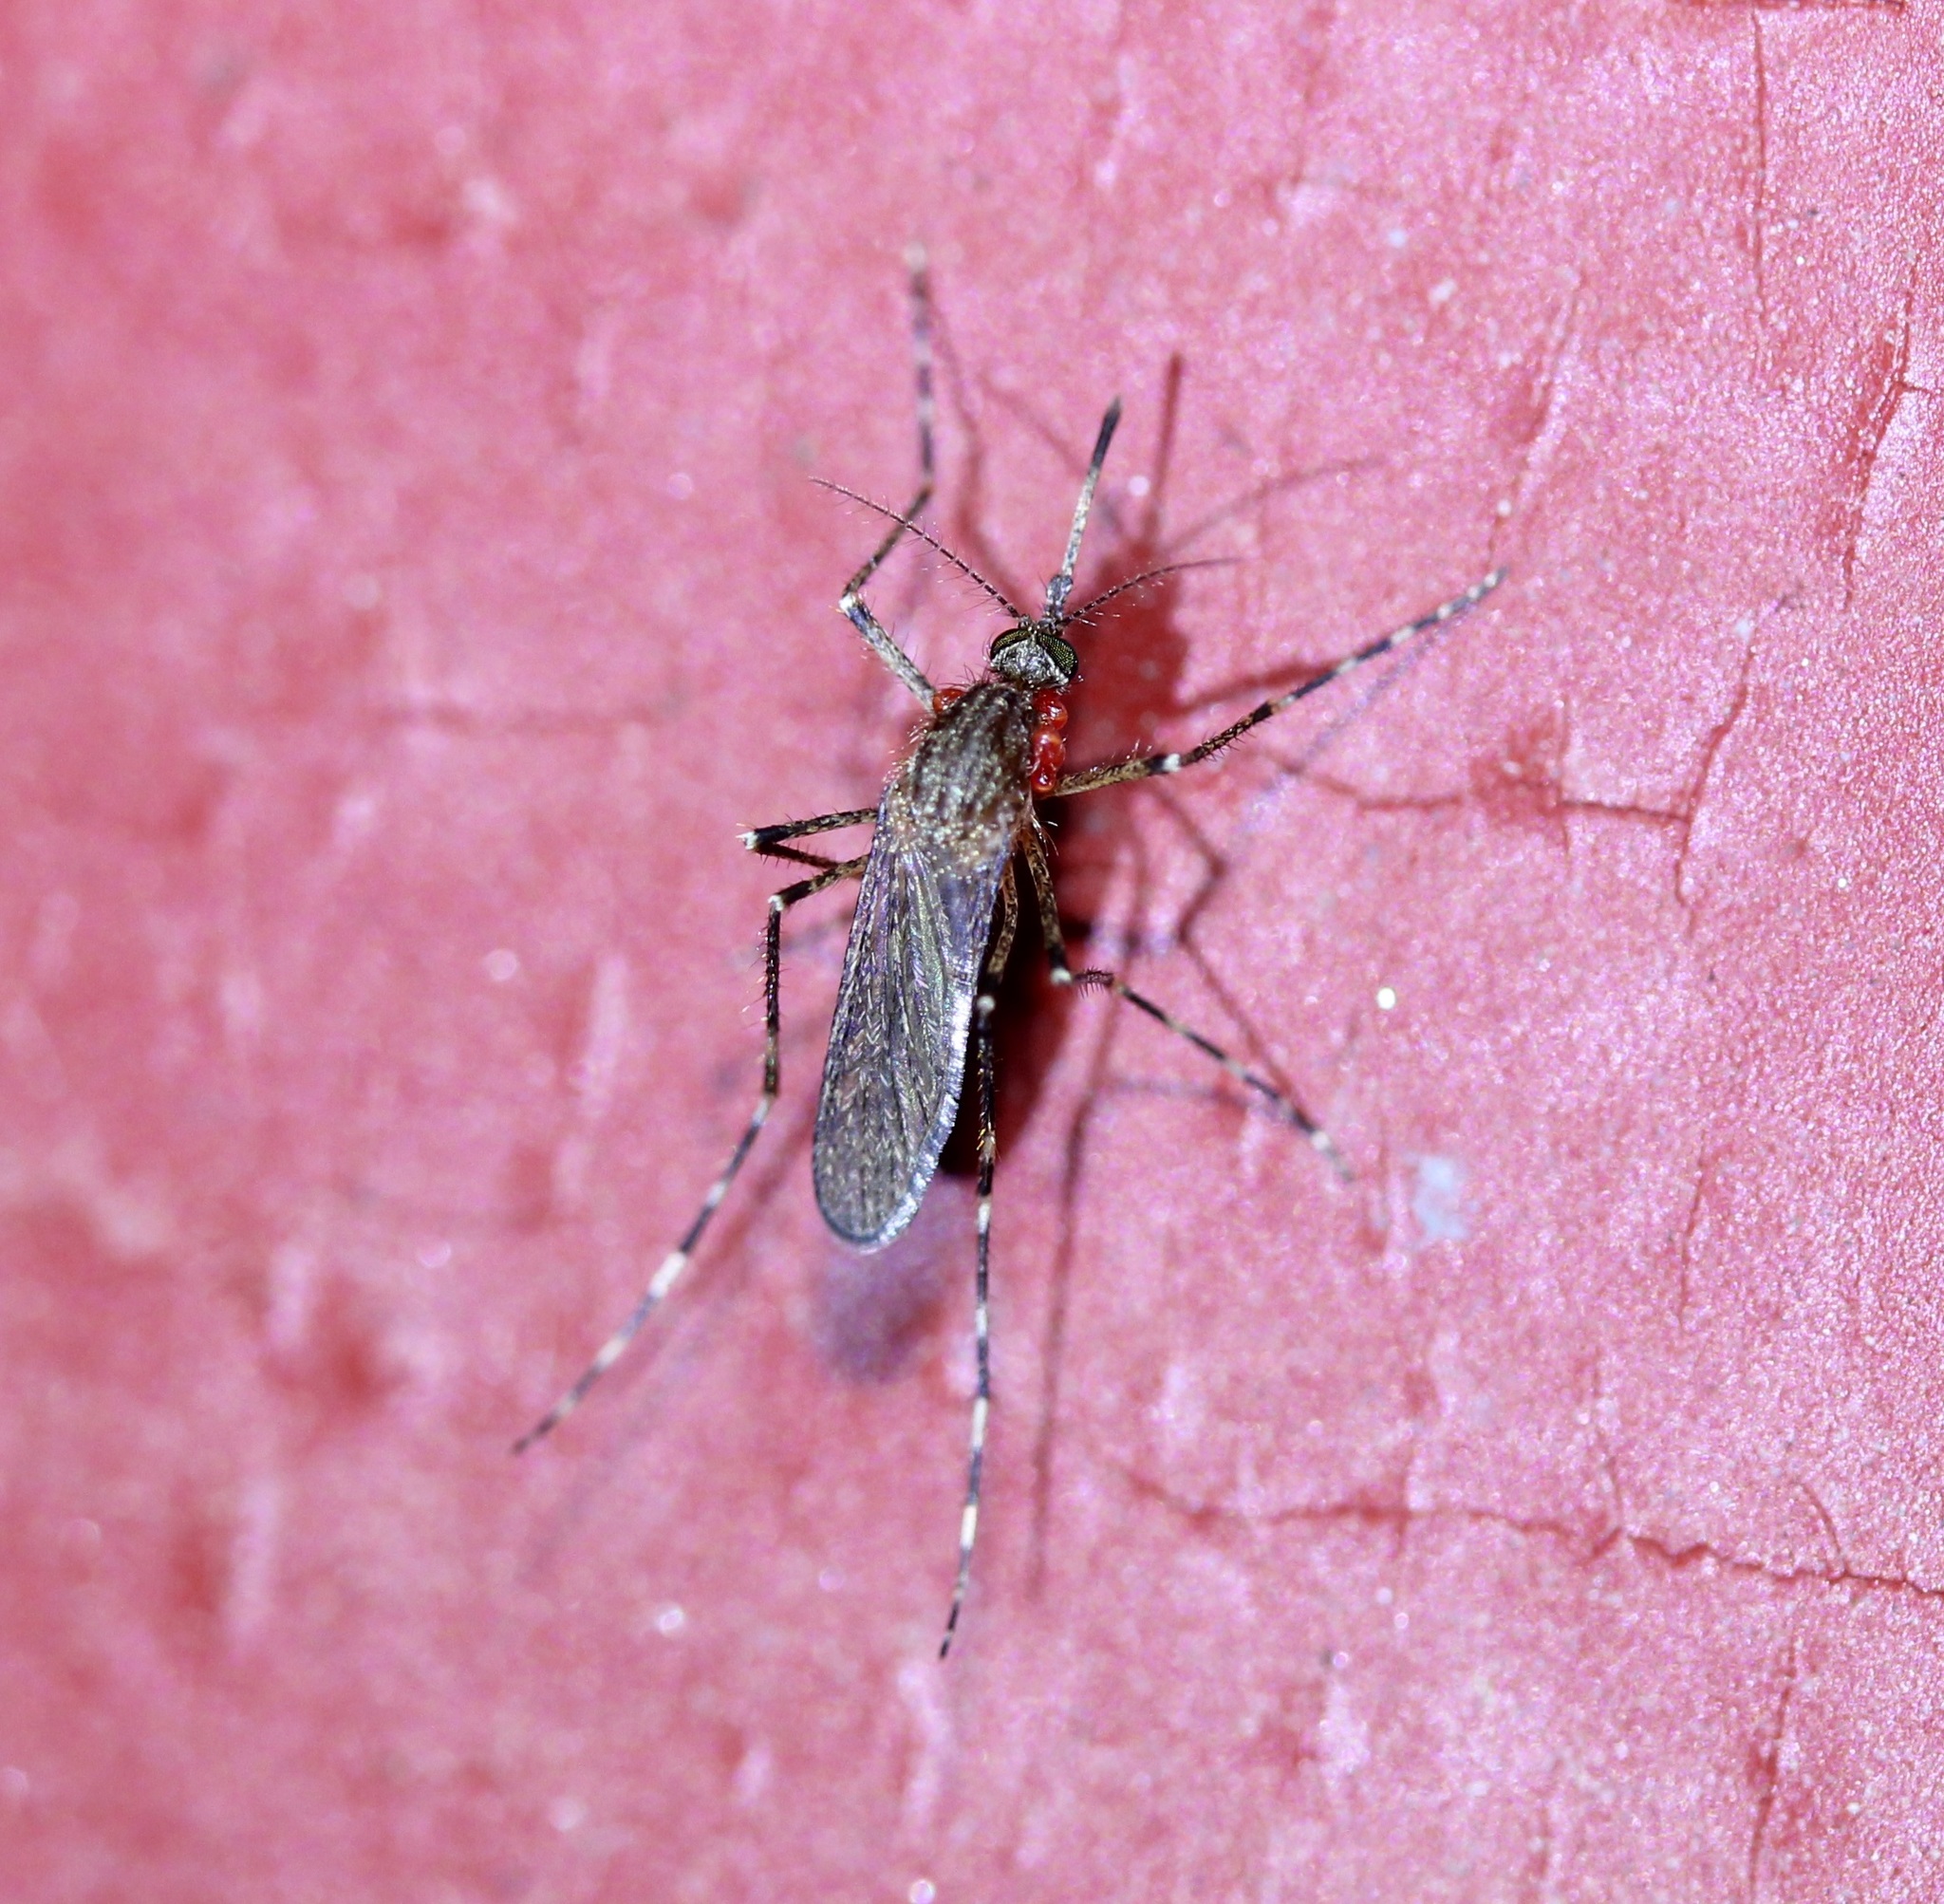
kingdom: Animalia
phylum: Arthropoda
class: Insecta
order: Diptera
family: Culicidae
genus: Coquillettidia
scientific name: Coquillettidia perturbans
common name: Cattail mosquito
